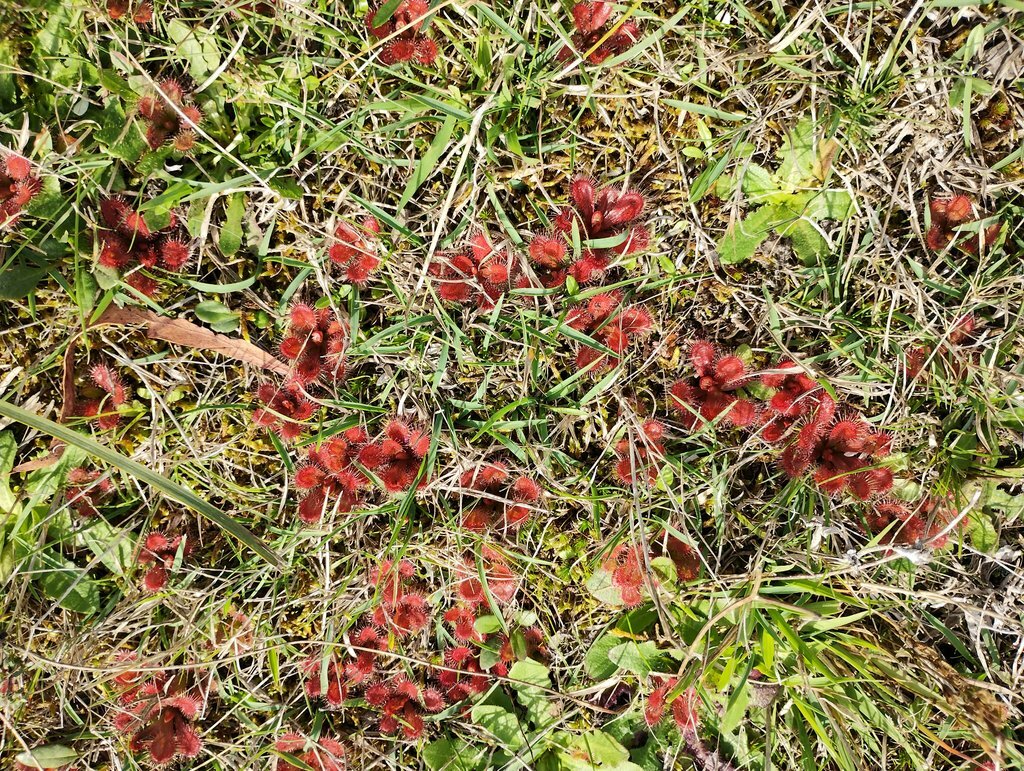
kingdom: Plantae
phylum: Tracheophyta
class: Magnoliopsida
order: Caryophyllales
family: Droseraceae
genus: Drosera
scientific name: Drosera aberrans
